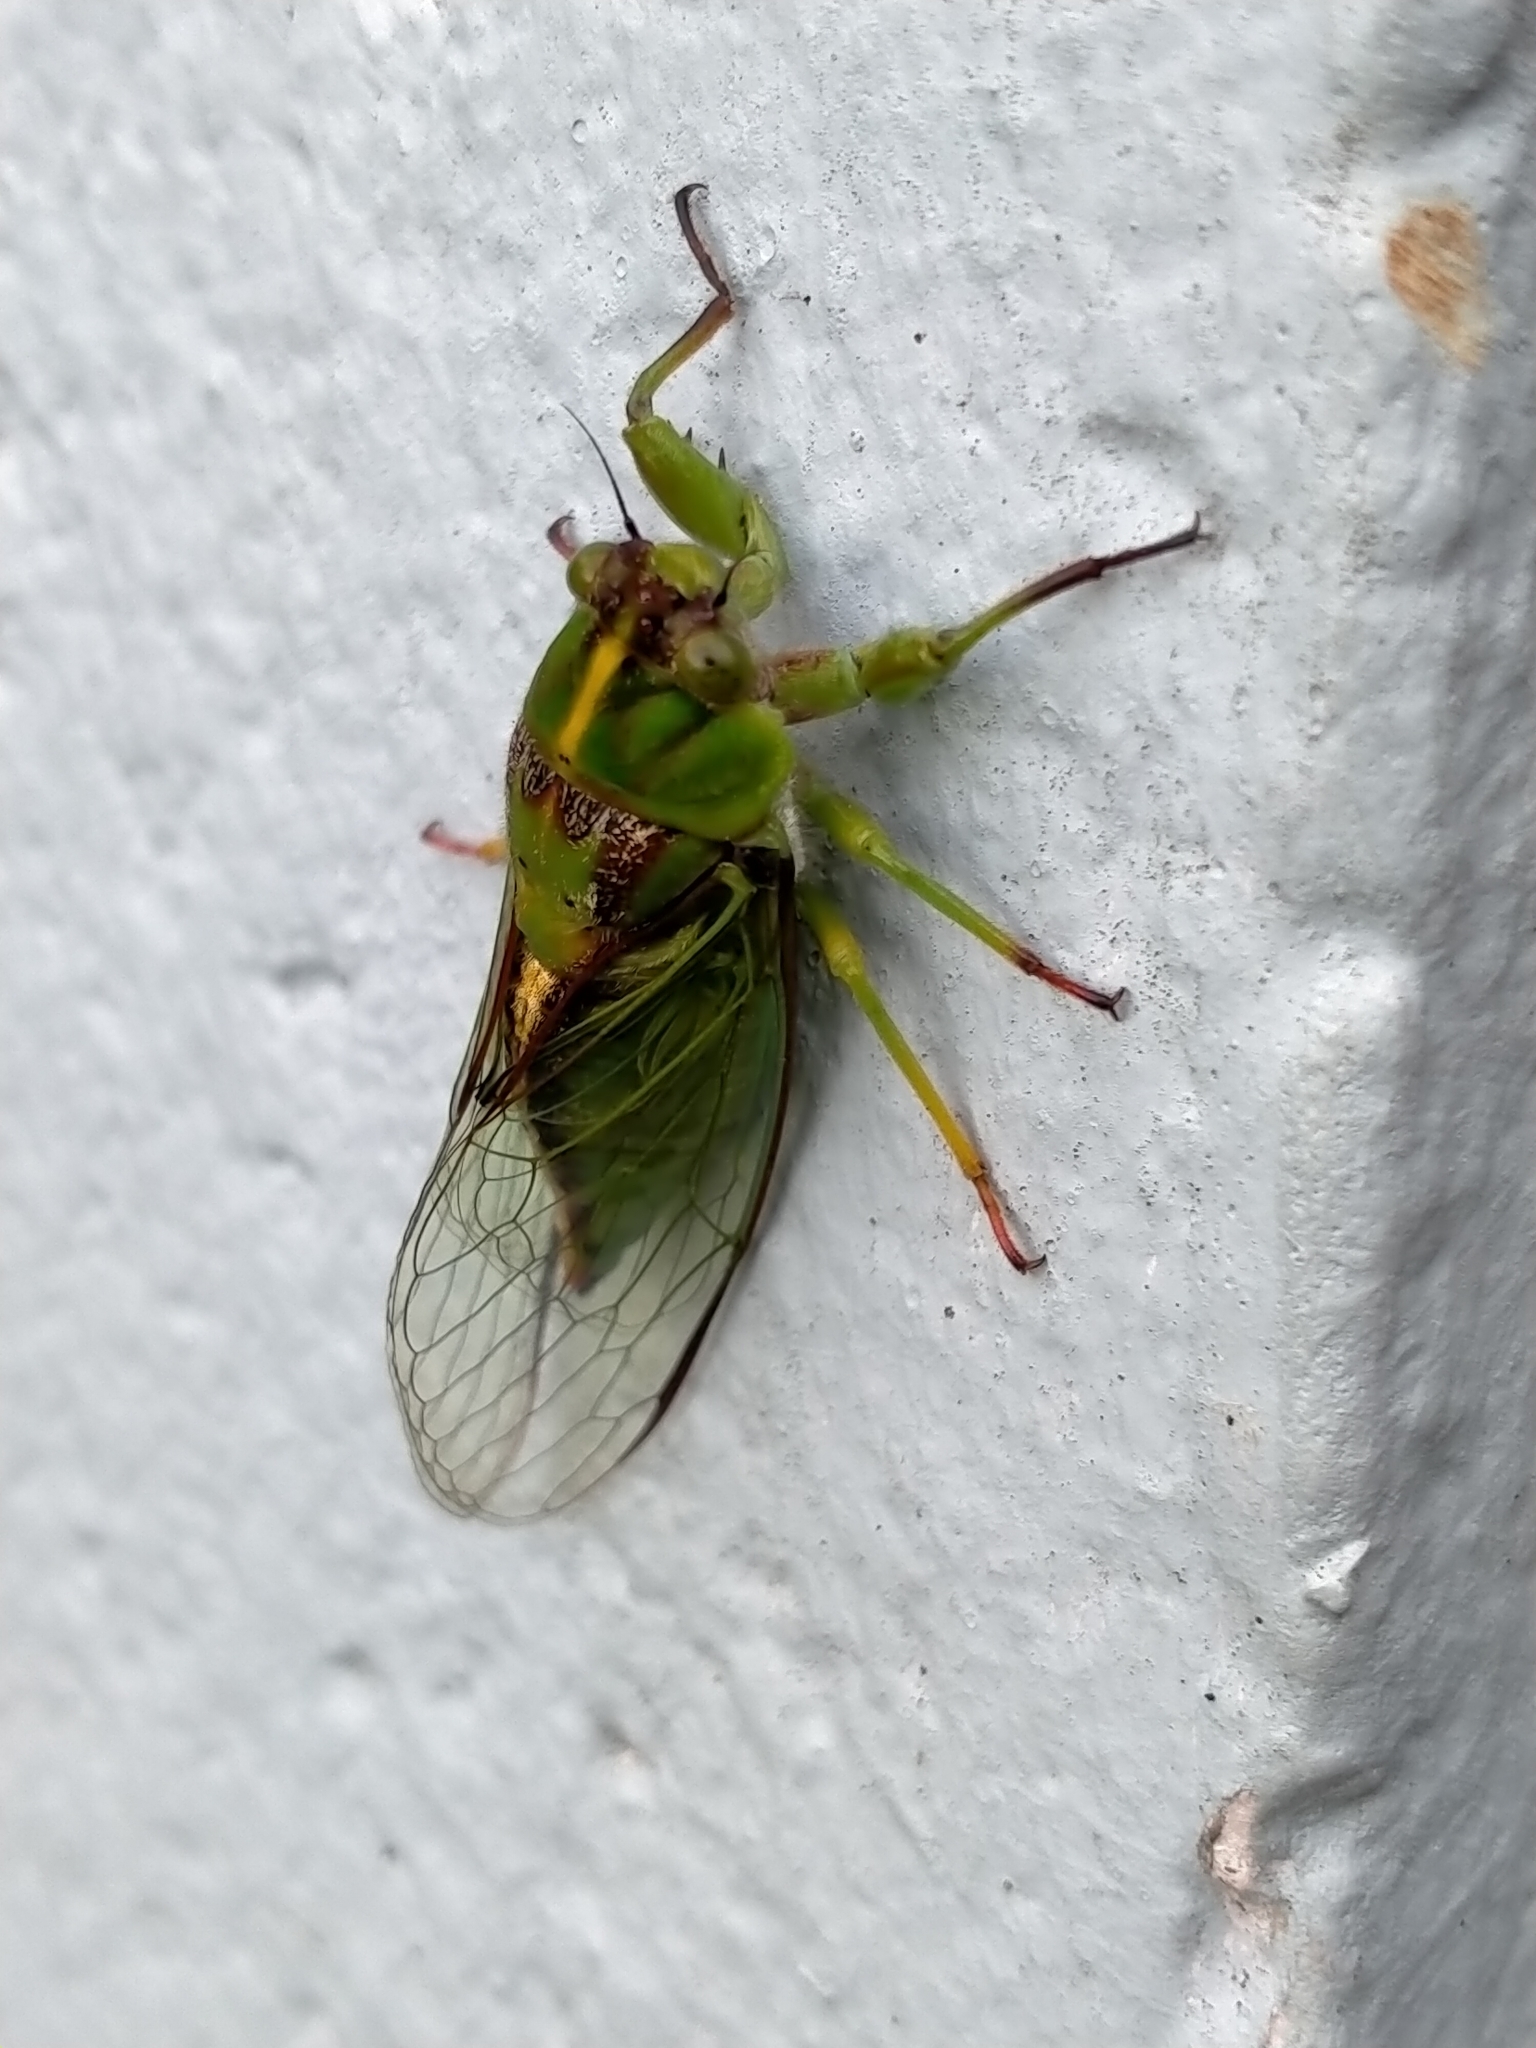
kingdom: Animalia
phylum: Arthropoda
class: Insecta
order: Hemiptera
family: Cicadidae
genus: Kikihia
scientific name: Kikihia subalpina
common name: Chathams cicada
